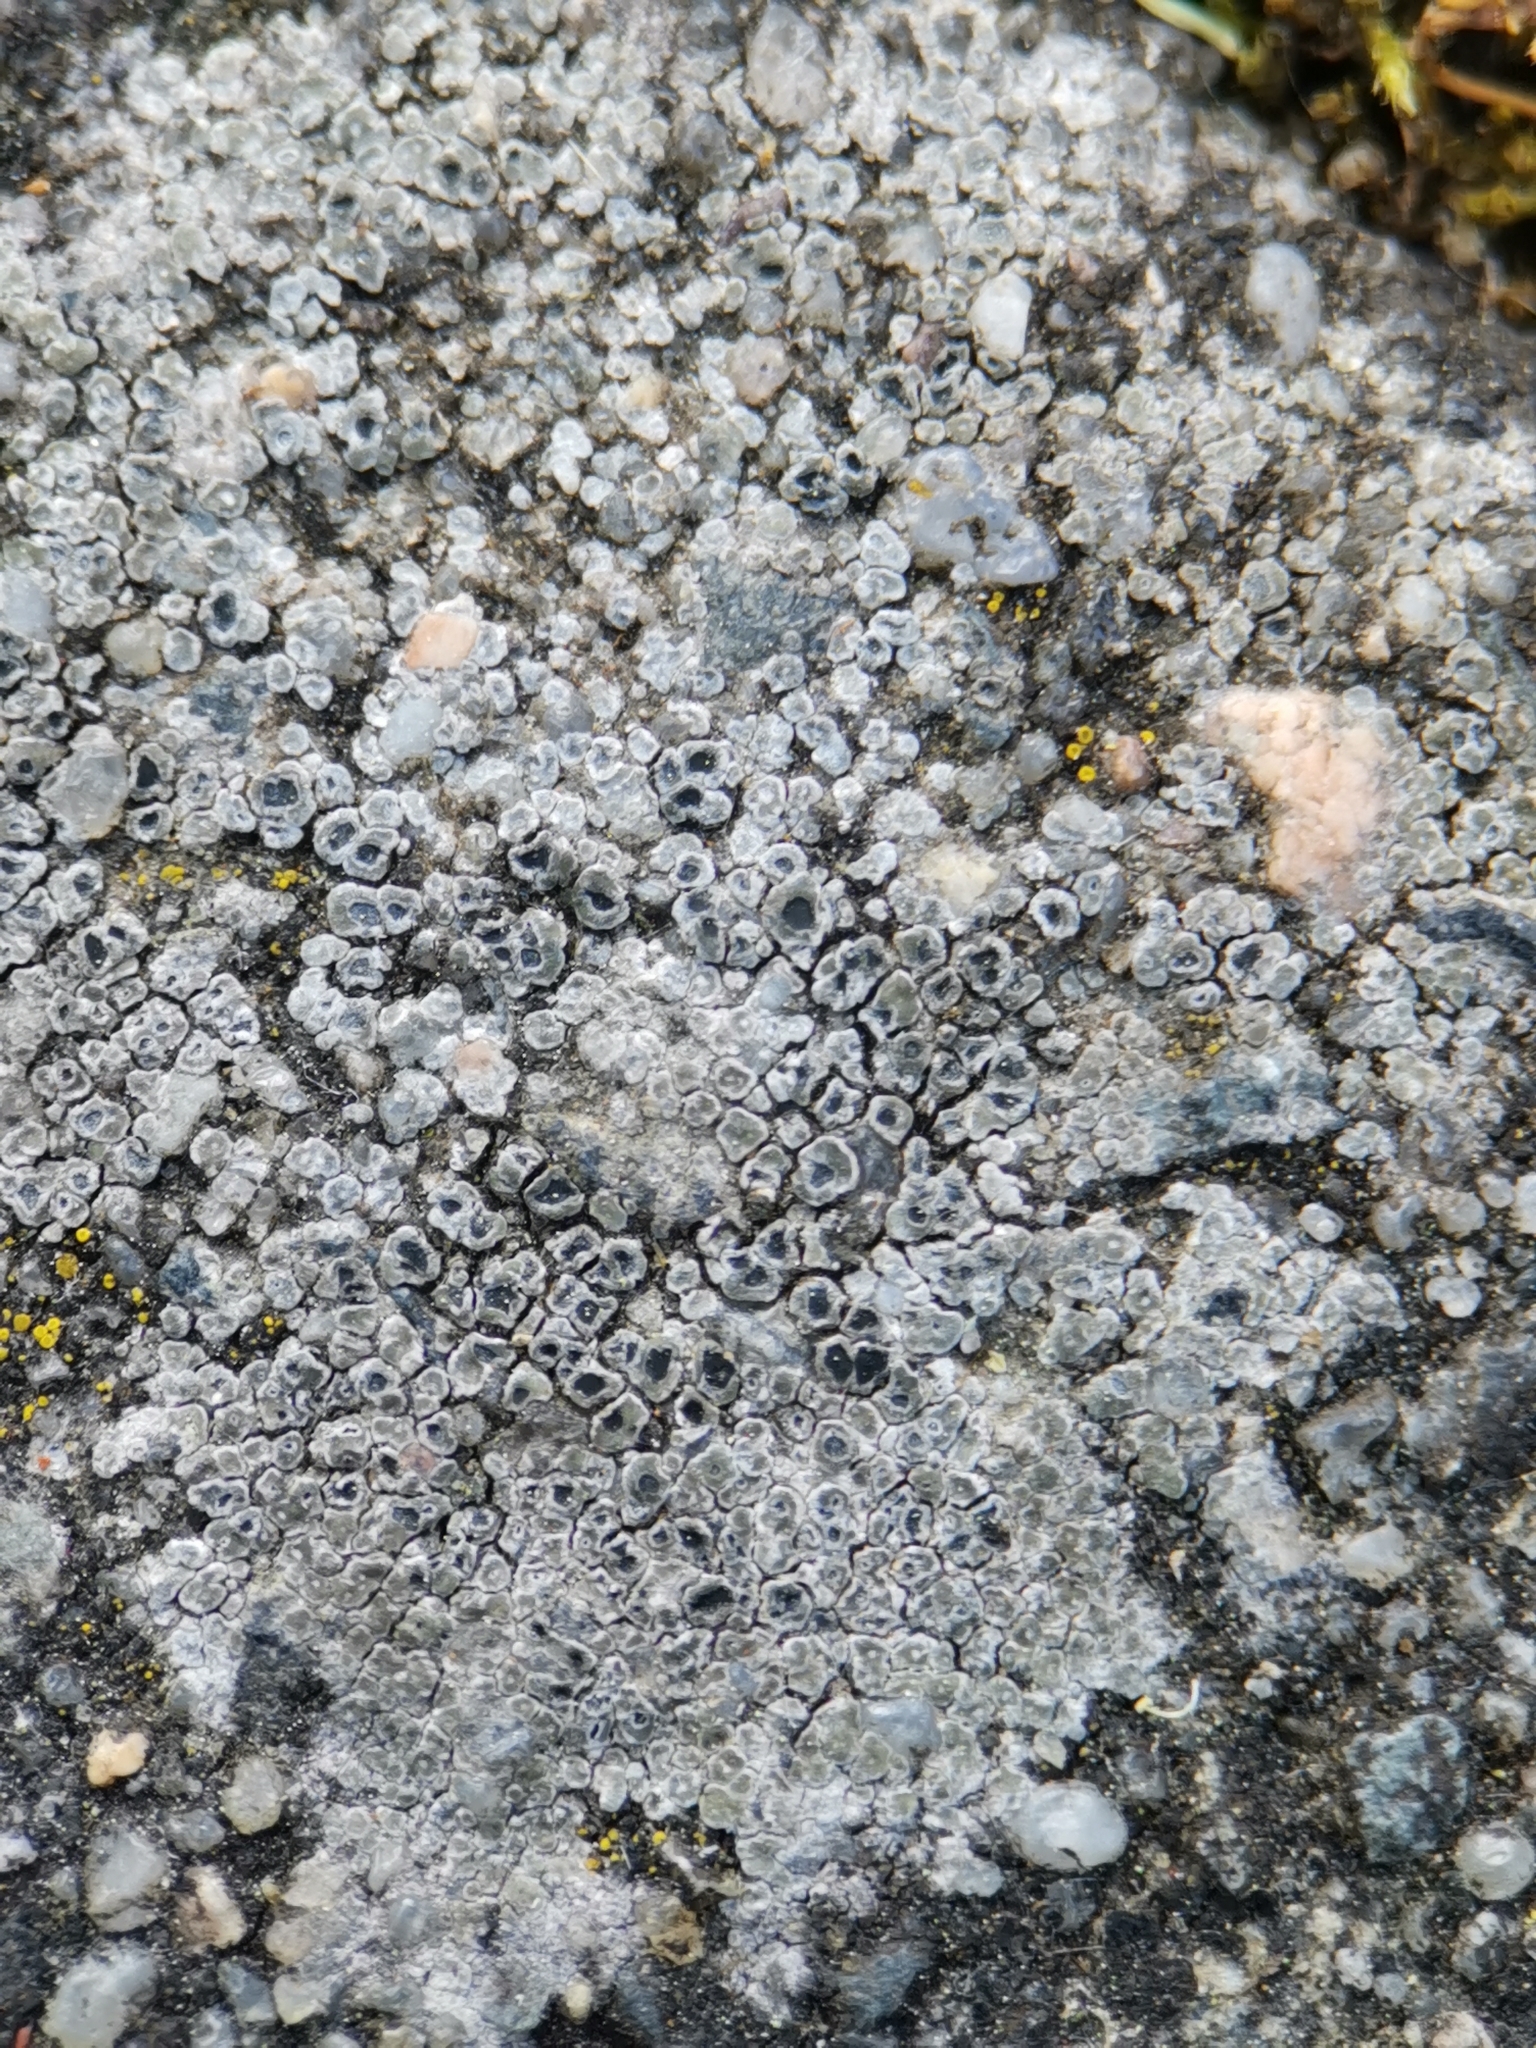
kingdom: Fungi
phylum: Ascomycota
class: Lecanoromycetes
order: Pertusariales
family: Megasporaceae
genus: Circinaria
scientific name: Circinaria contorta
